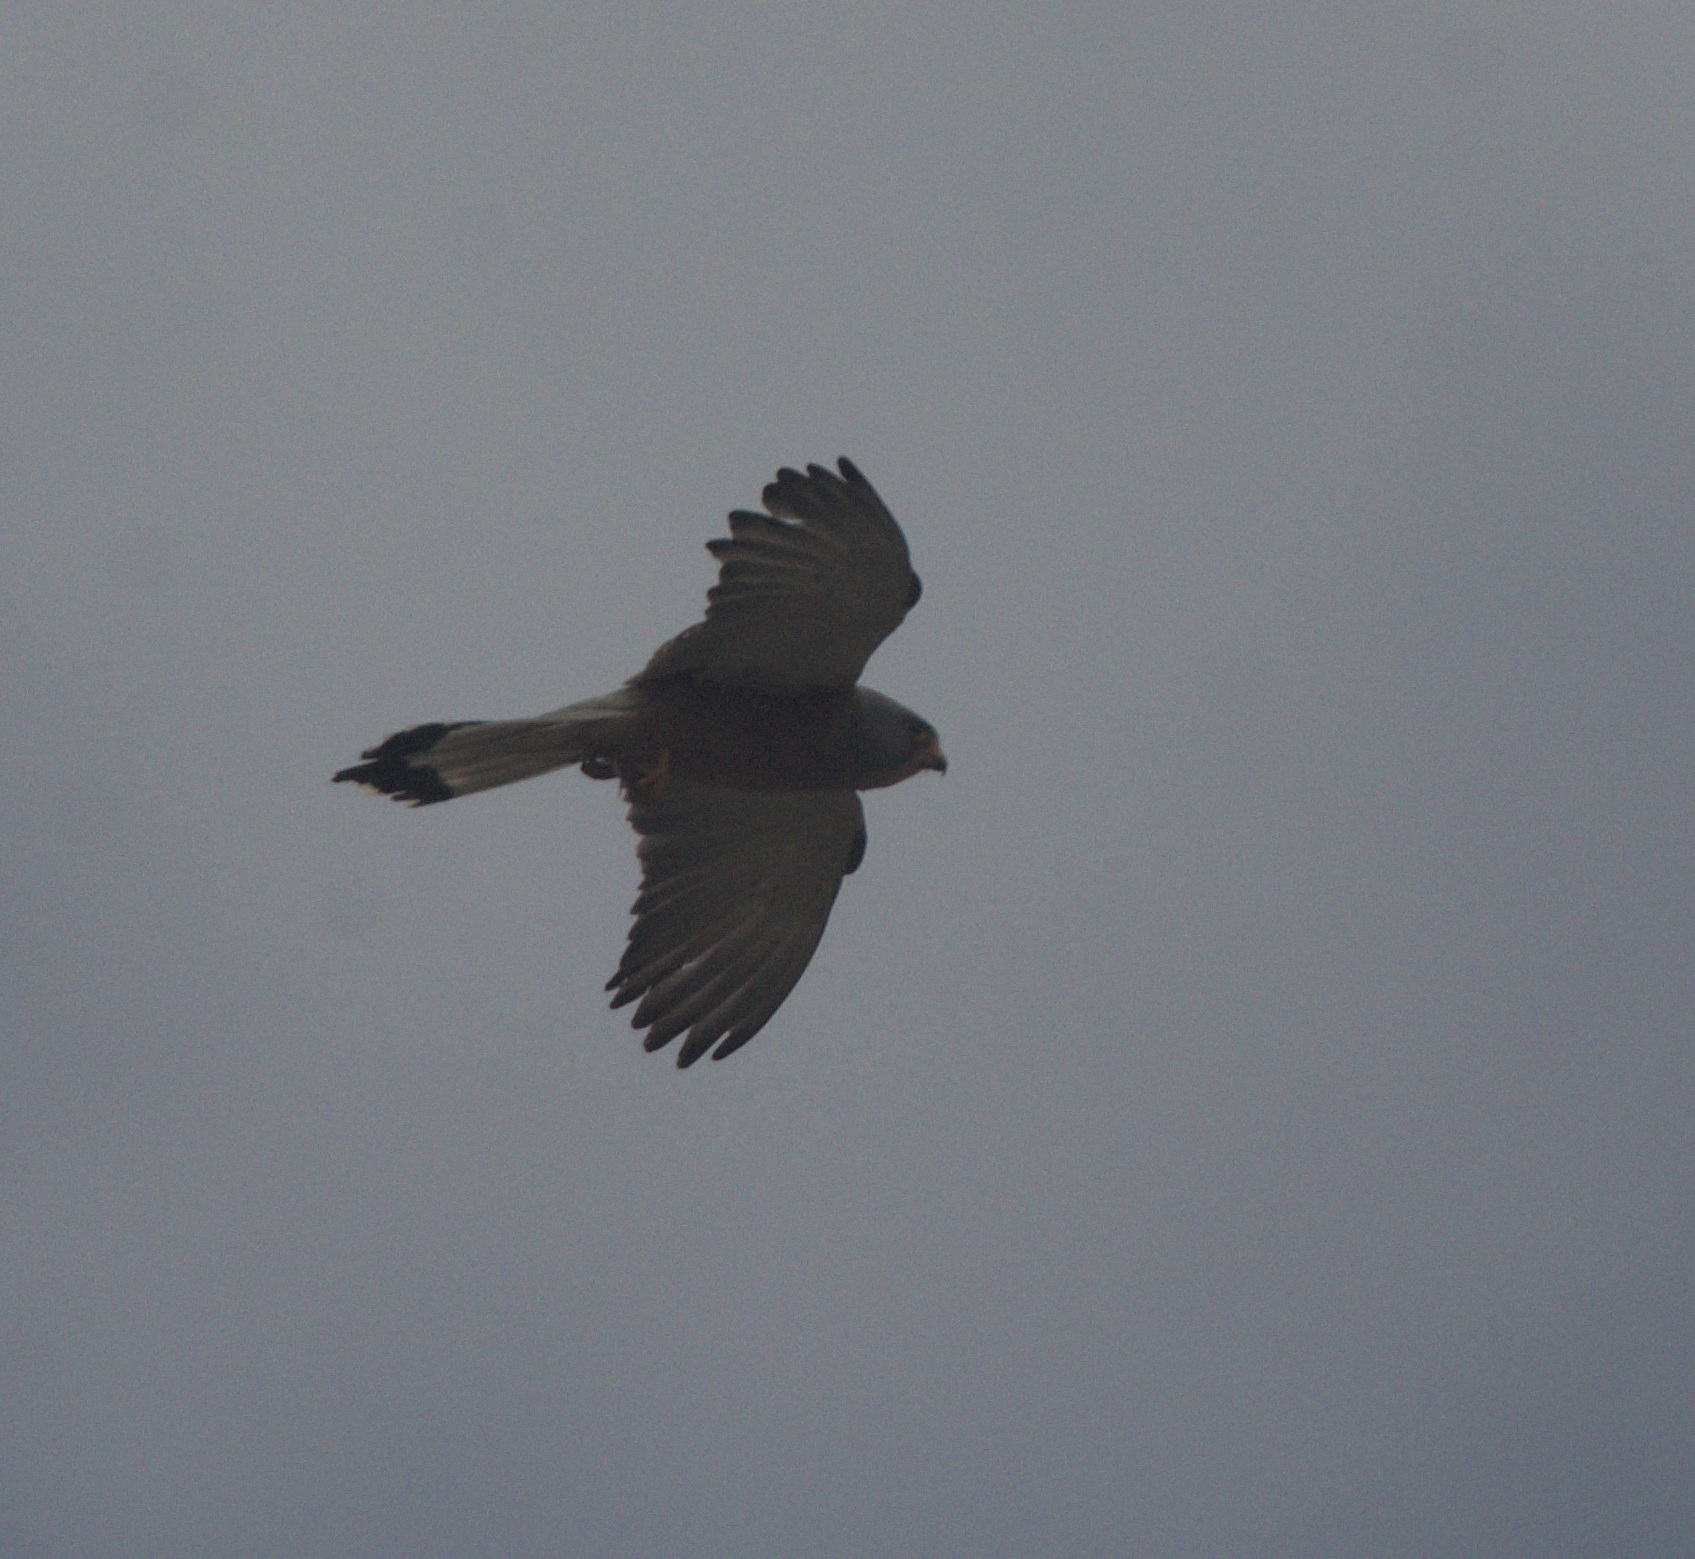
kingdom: Animalia
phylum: Chordata
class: Aves
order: Falconiformes
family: Falconidae
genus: Falco
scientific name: Falco naumanni
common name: Lesser kestrel
